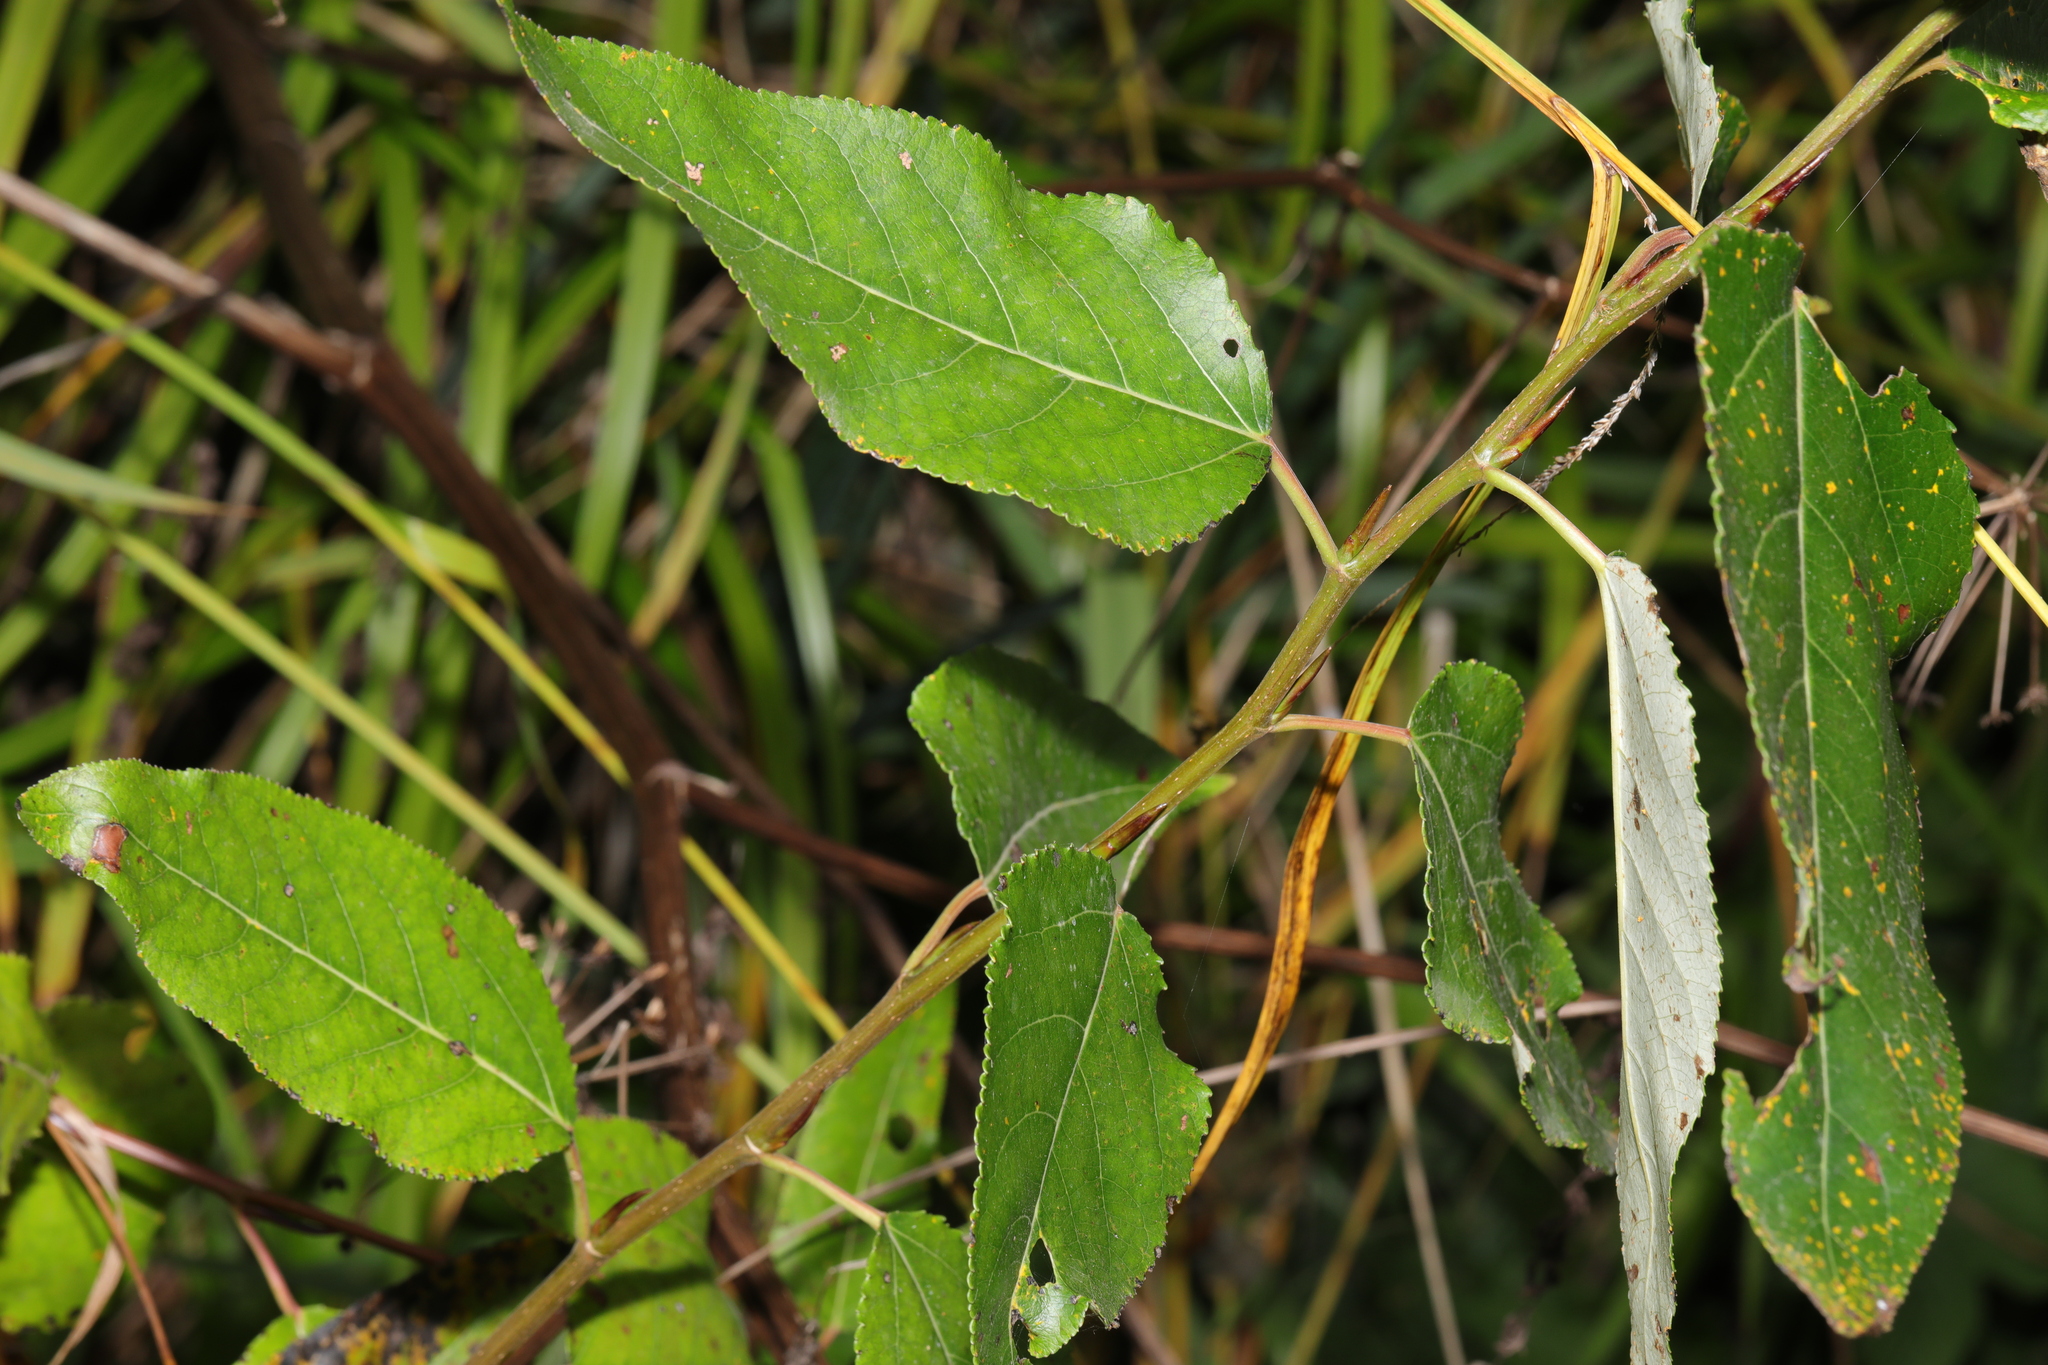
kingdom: Plantae
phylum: Tracheophyta
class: Magnoliopsida
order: Malpighiales
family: Salicaceae
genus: Populus
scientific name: Populus trichocarpa
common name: Black cottonwood
